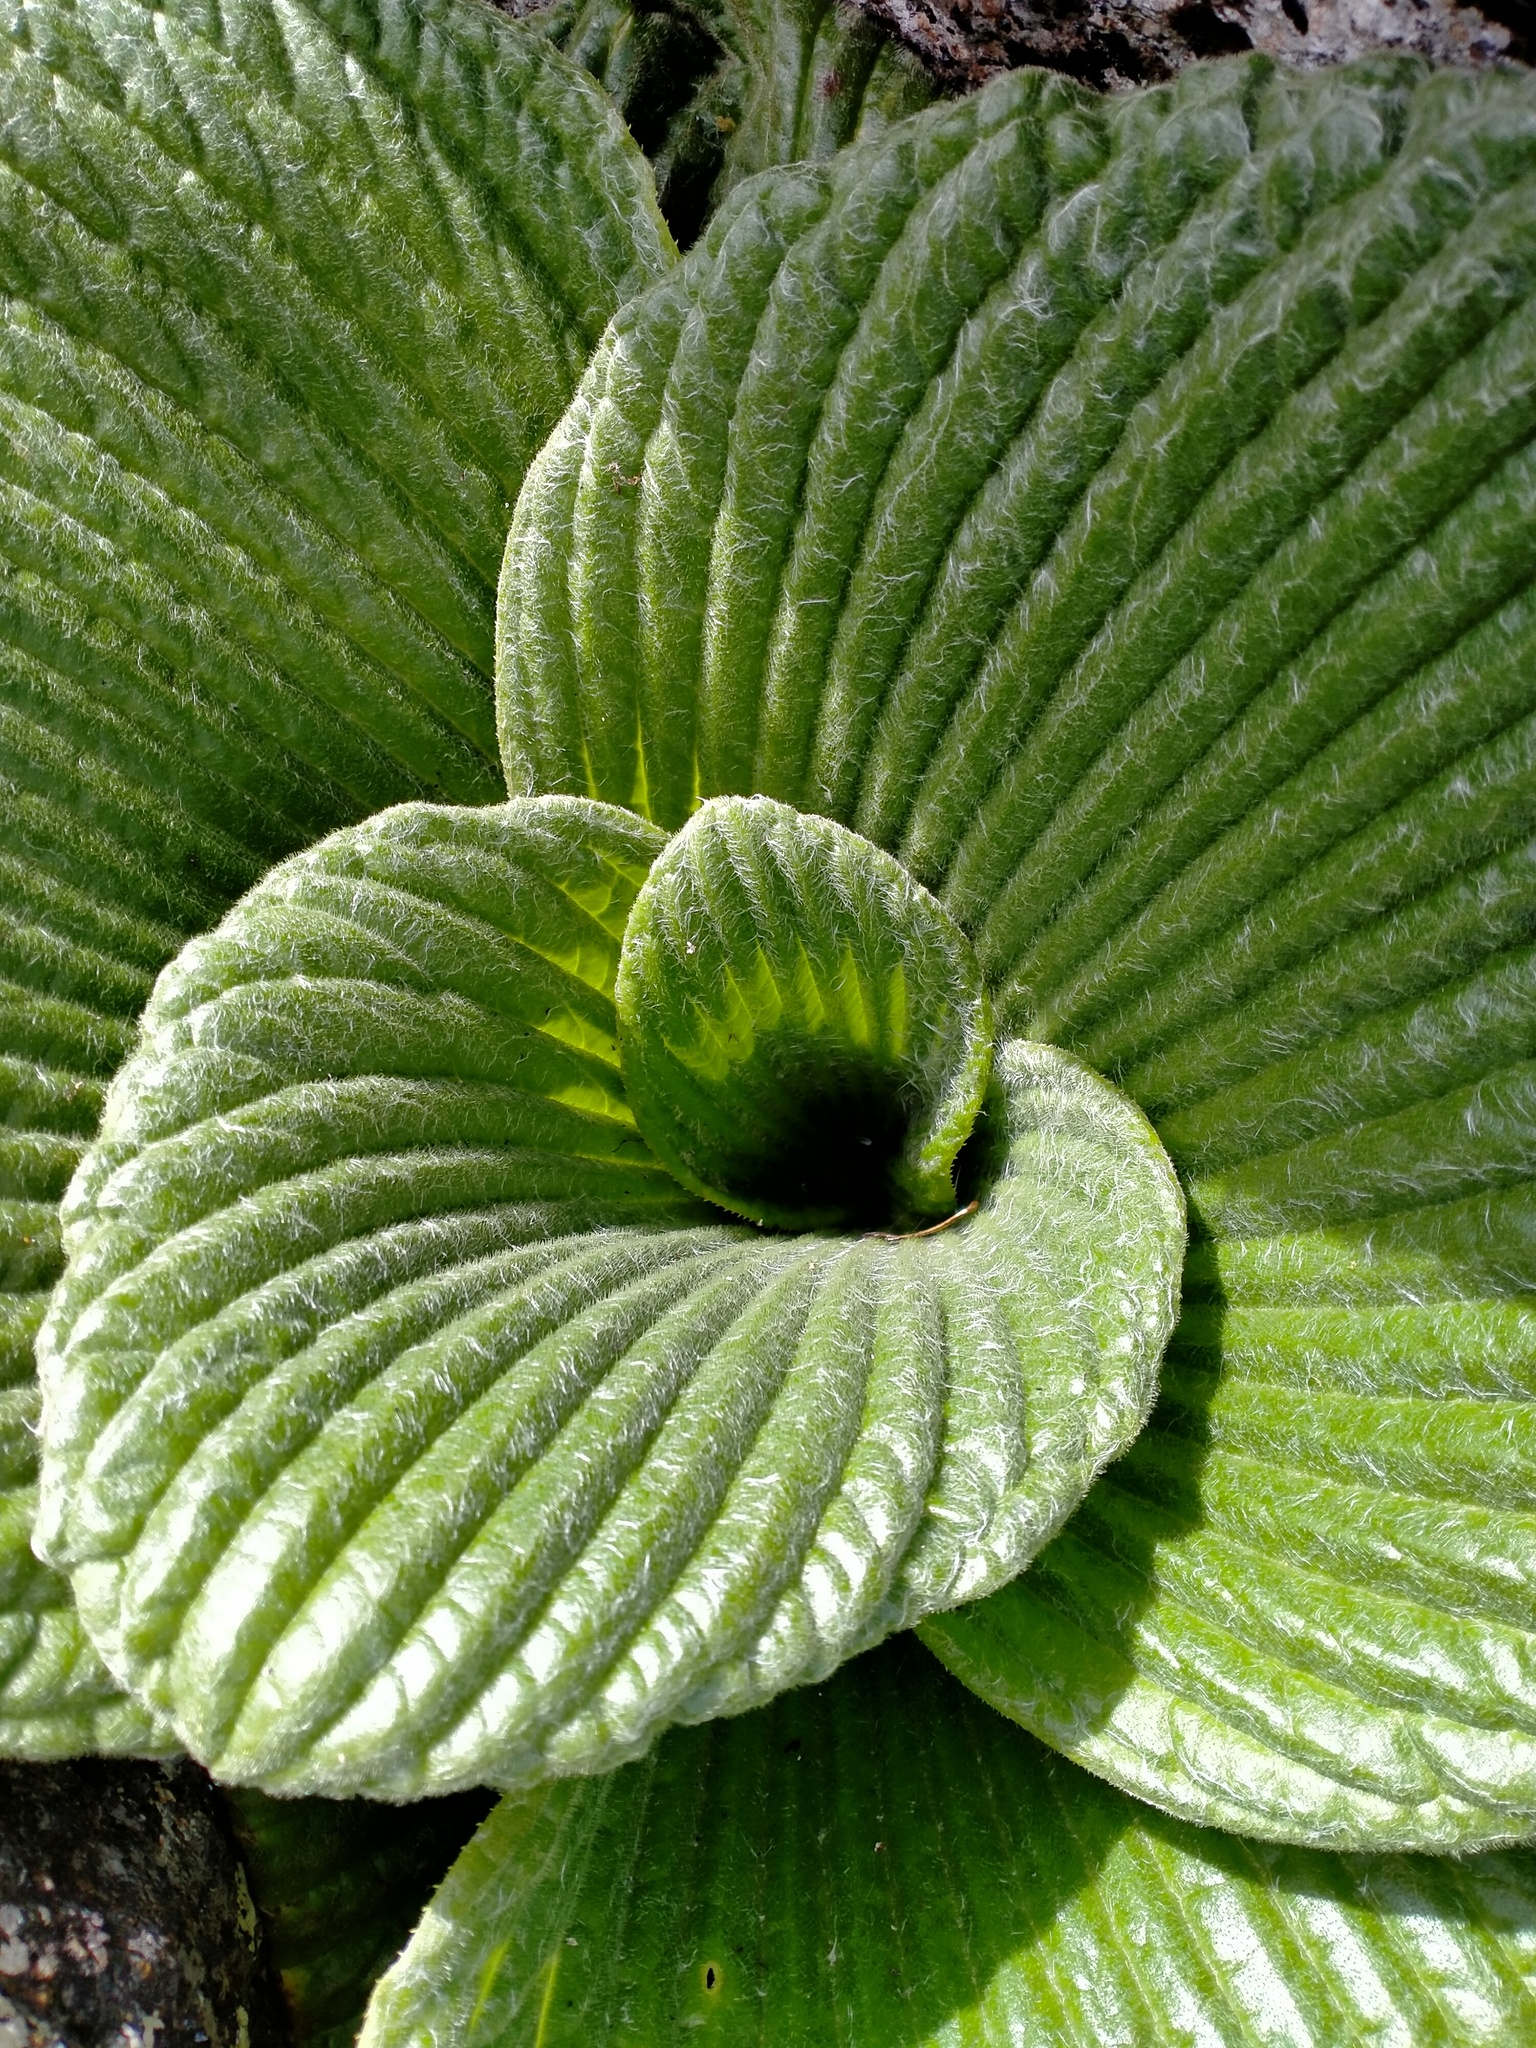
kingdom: Plantae
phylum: Tracheophyta
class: Magnoliopsida
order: Asterales
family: Asteraceae
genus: Pleurophyllum
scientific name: Pleurophyllum speciosum
